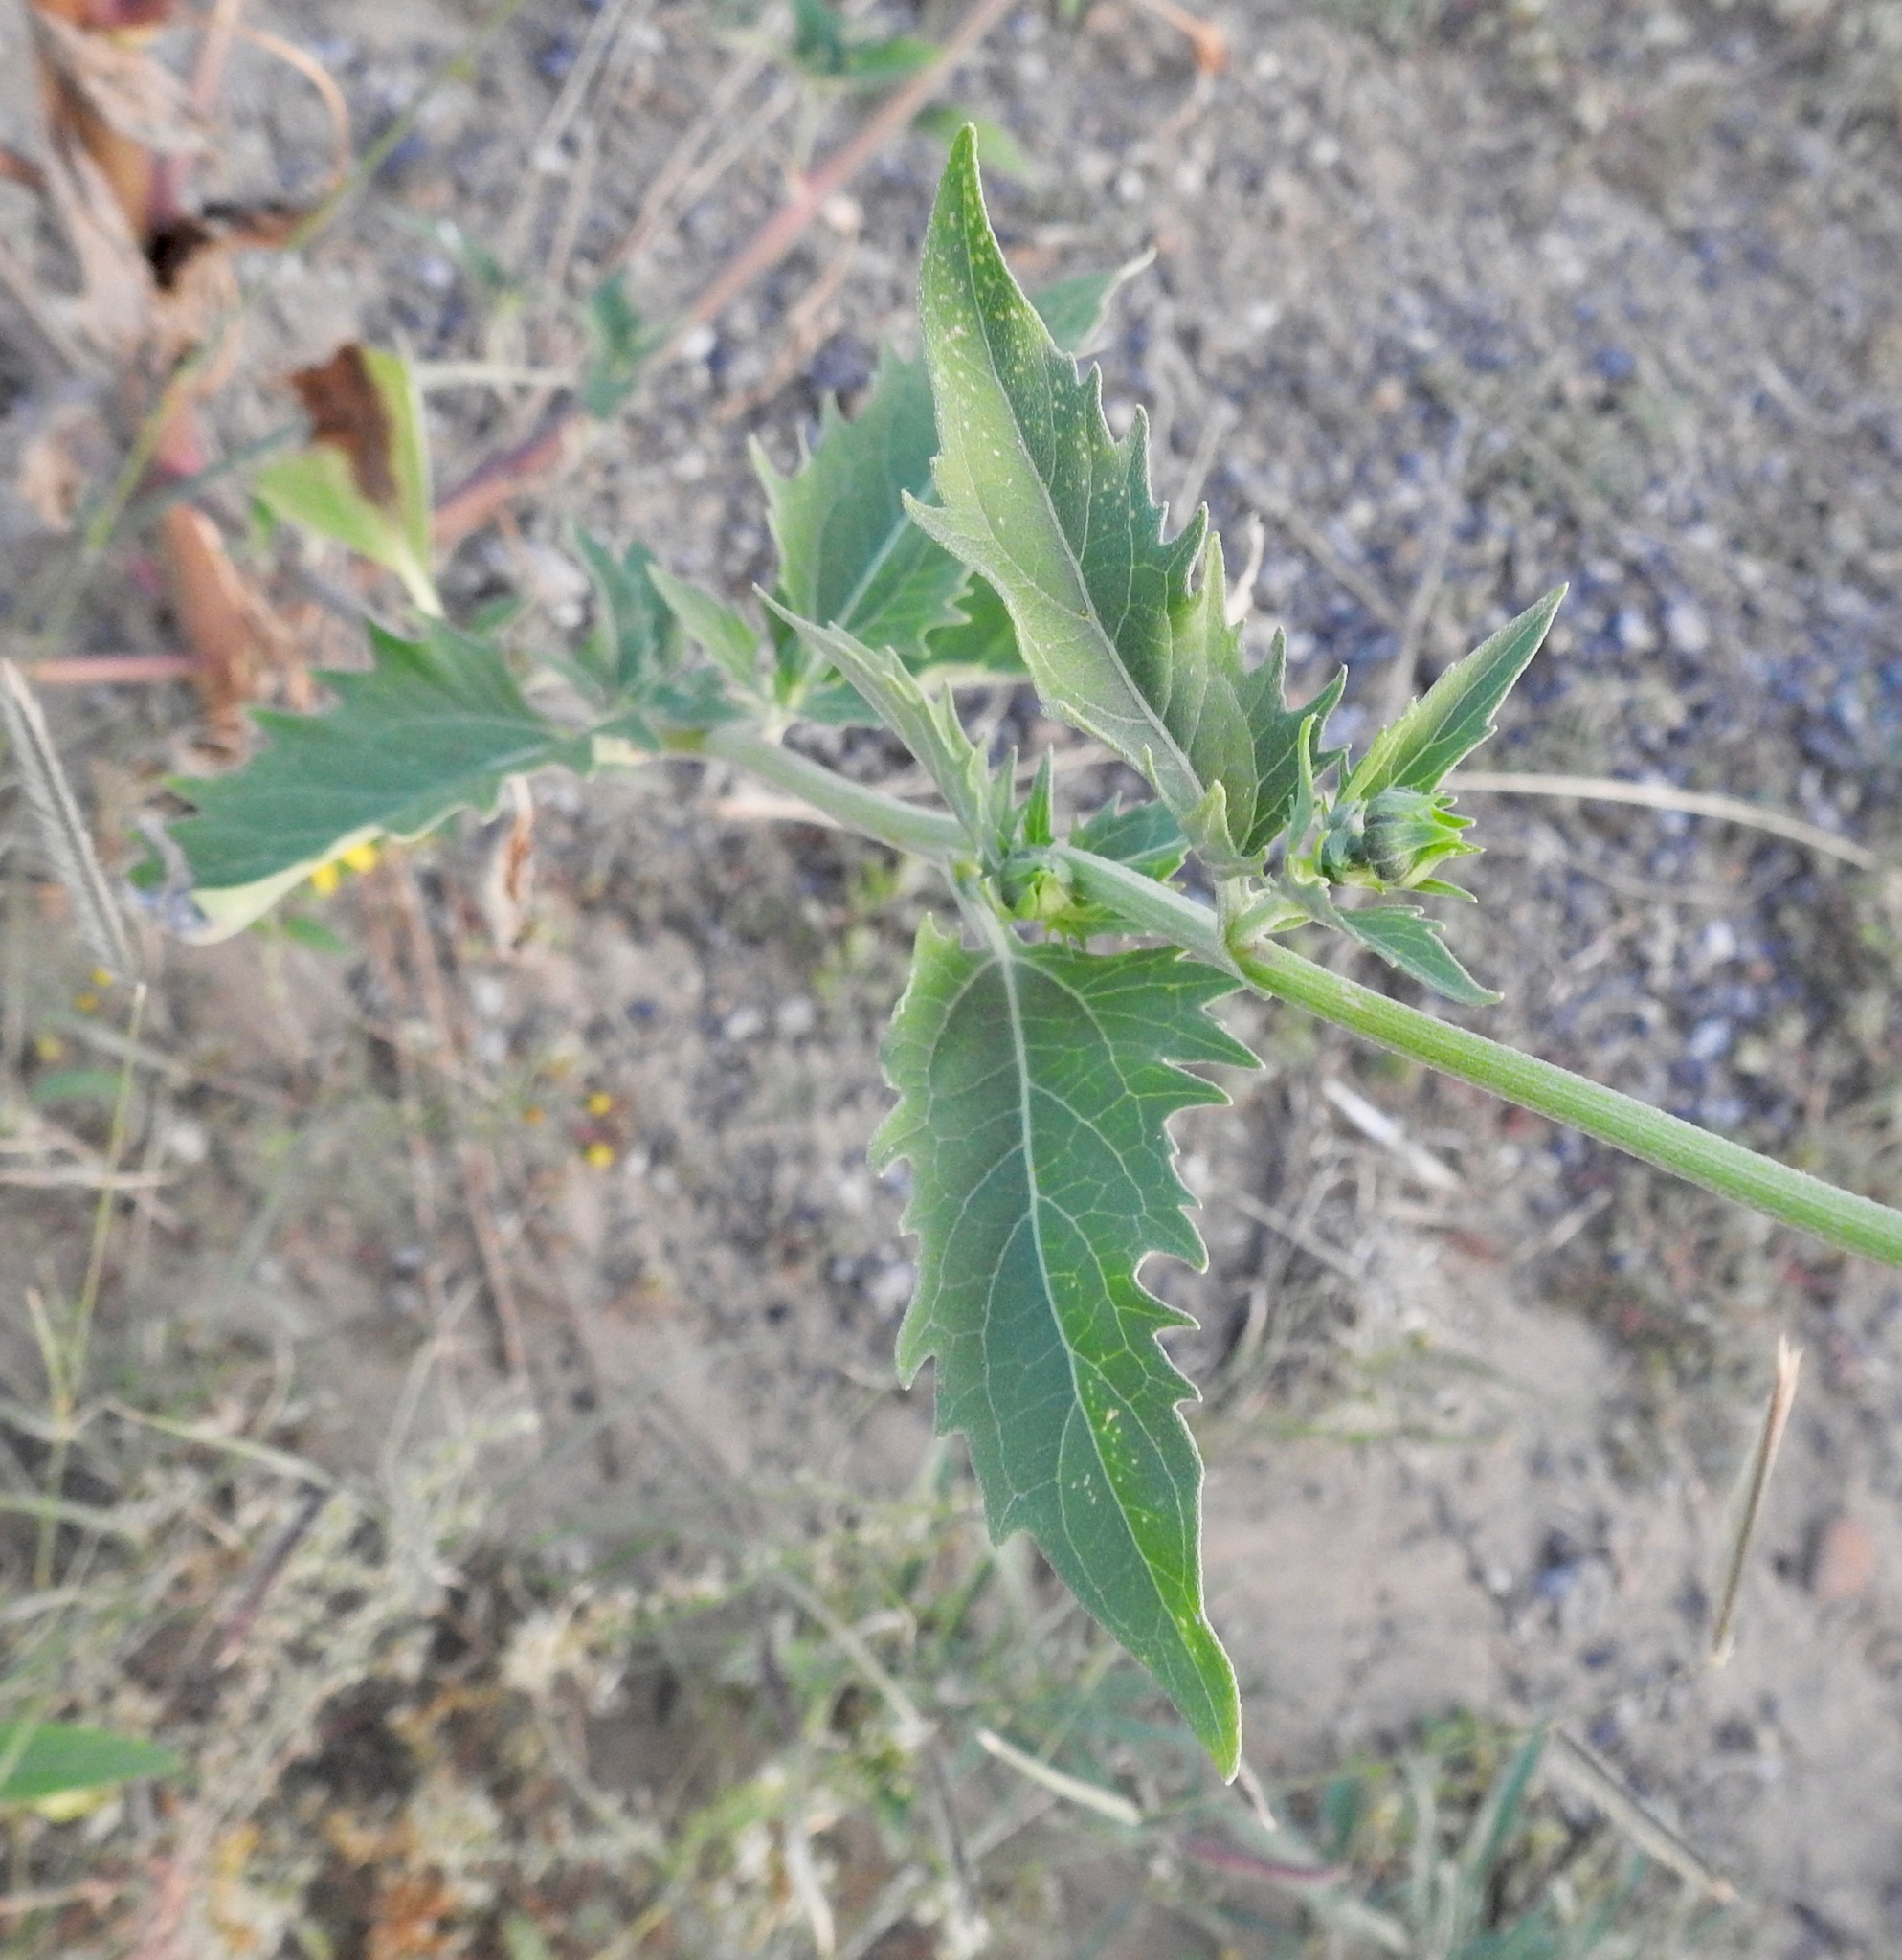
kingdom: Plantae
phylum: Tracheophyta
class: Magnoliopsida
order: Asterales
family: Asteraceae
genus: Verbesina
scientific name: Verbesina encelioides
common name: Golden crownbeard
